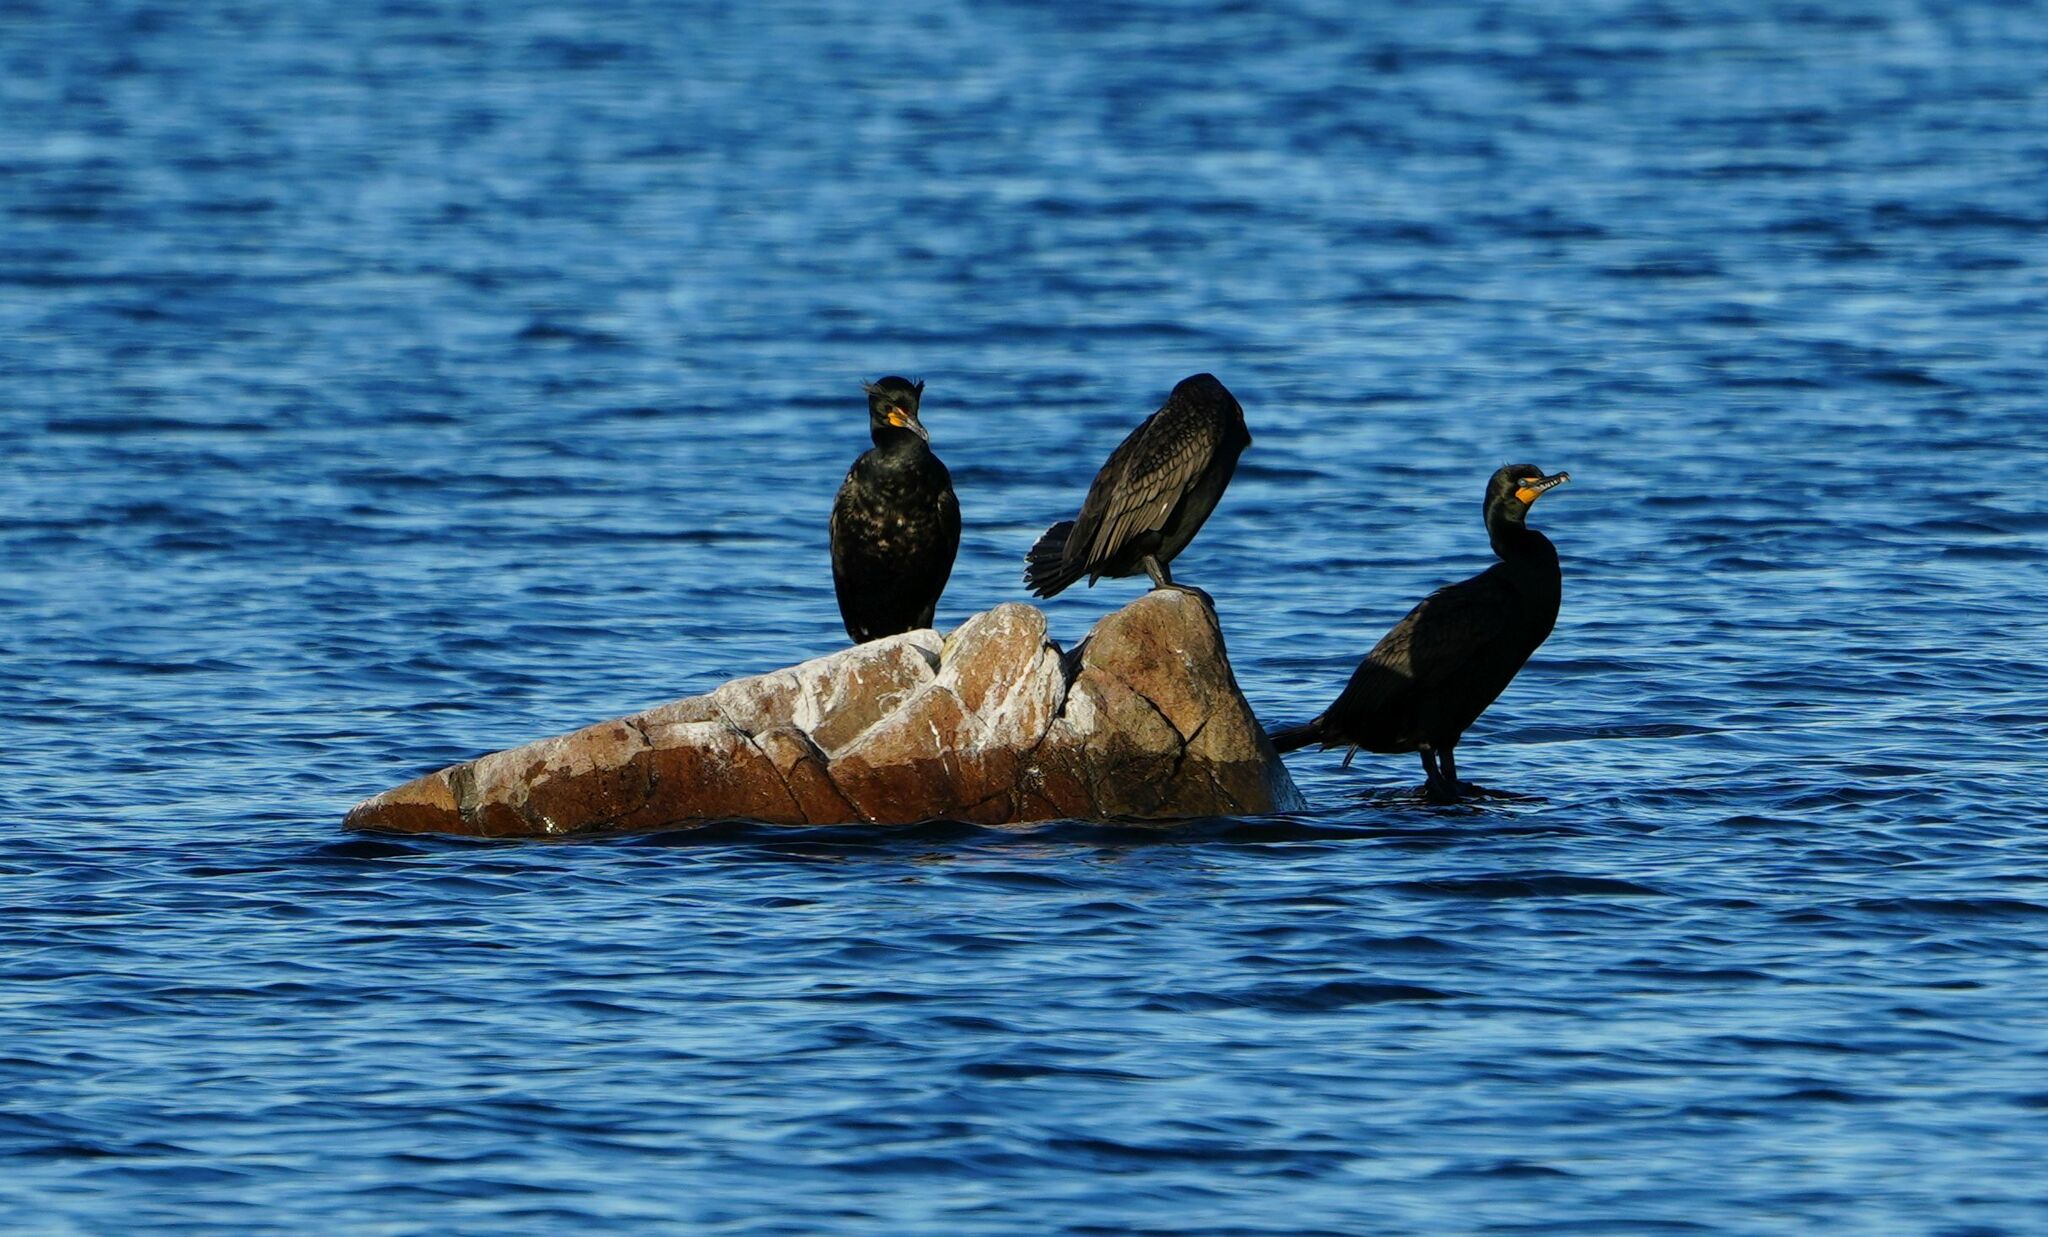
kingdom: Animalia
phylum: Chordata
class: Aves
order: Suliformes
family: Phalacrocoracidae
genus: Phalacrocorax
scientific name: Phalacrocorax auritus
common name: Double-crested cormorant
